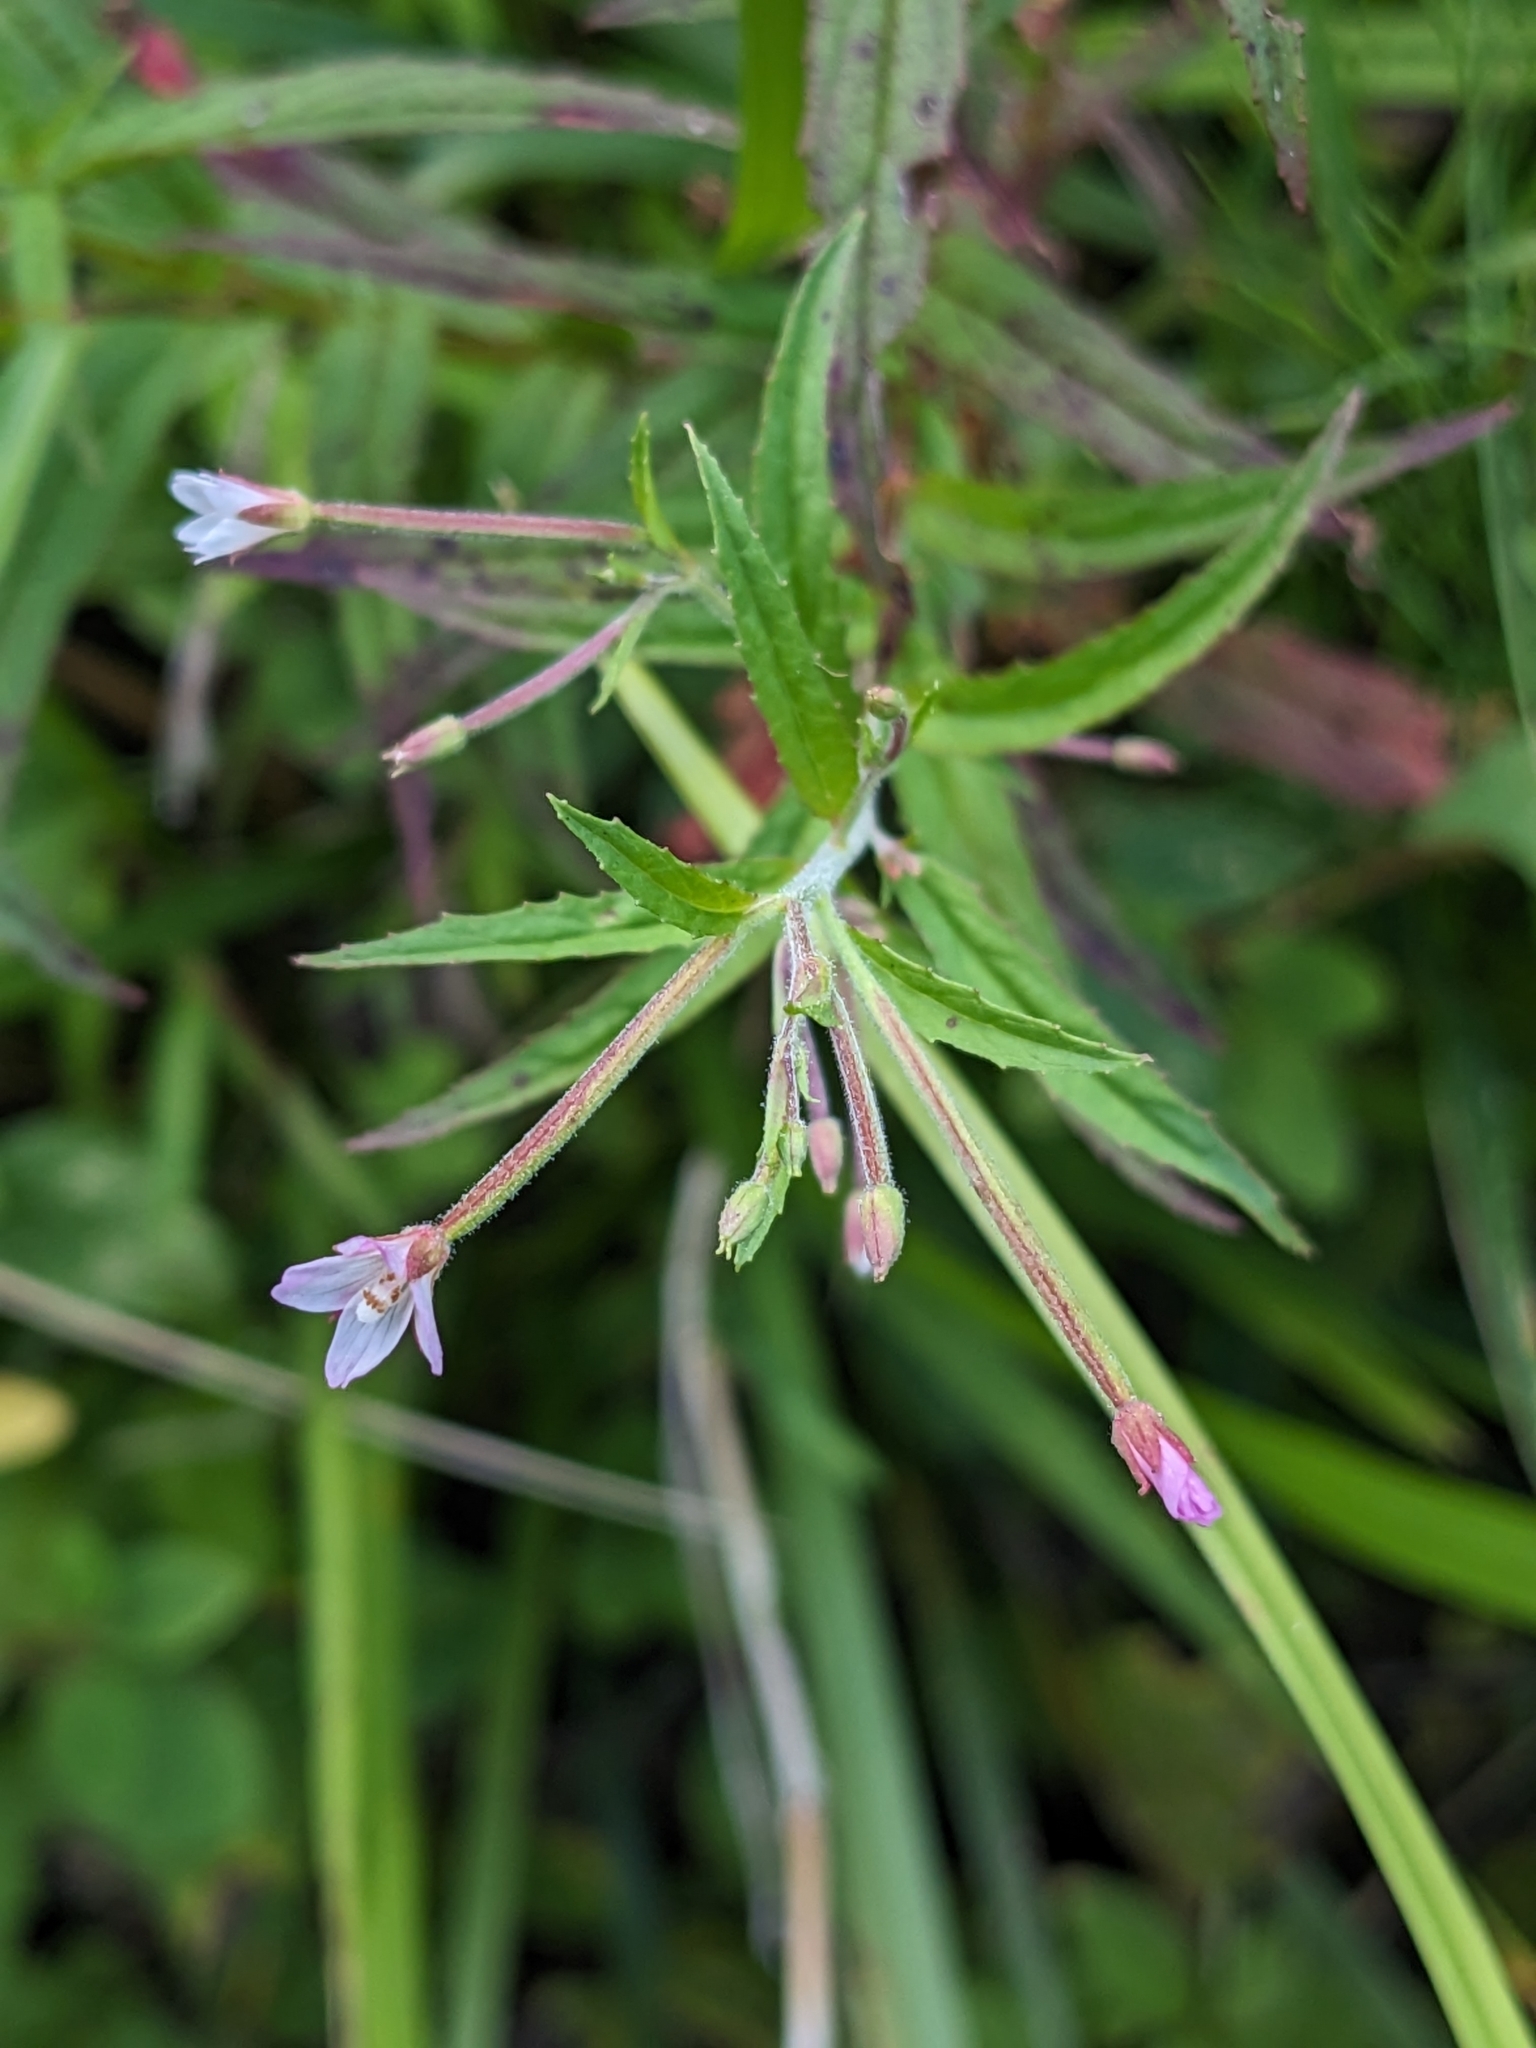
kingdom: Plantae
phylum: Tracheophyta
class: Magnoliopsida
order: Myrtales
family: Onagraceae
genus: Epilobium
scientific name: Epilobium coloratum
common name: Bronze willowherb
